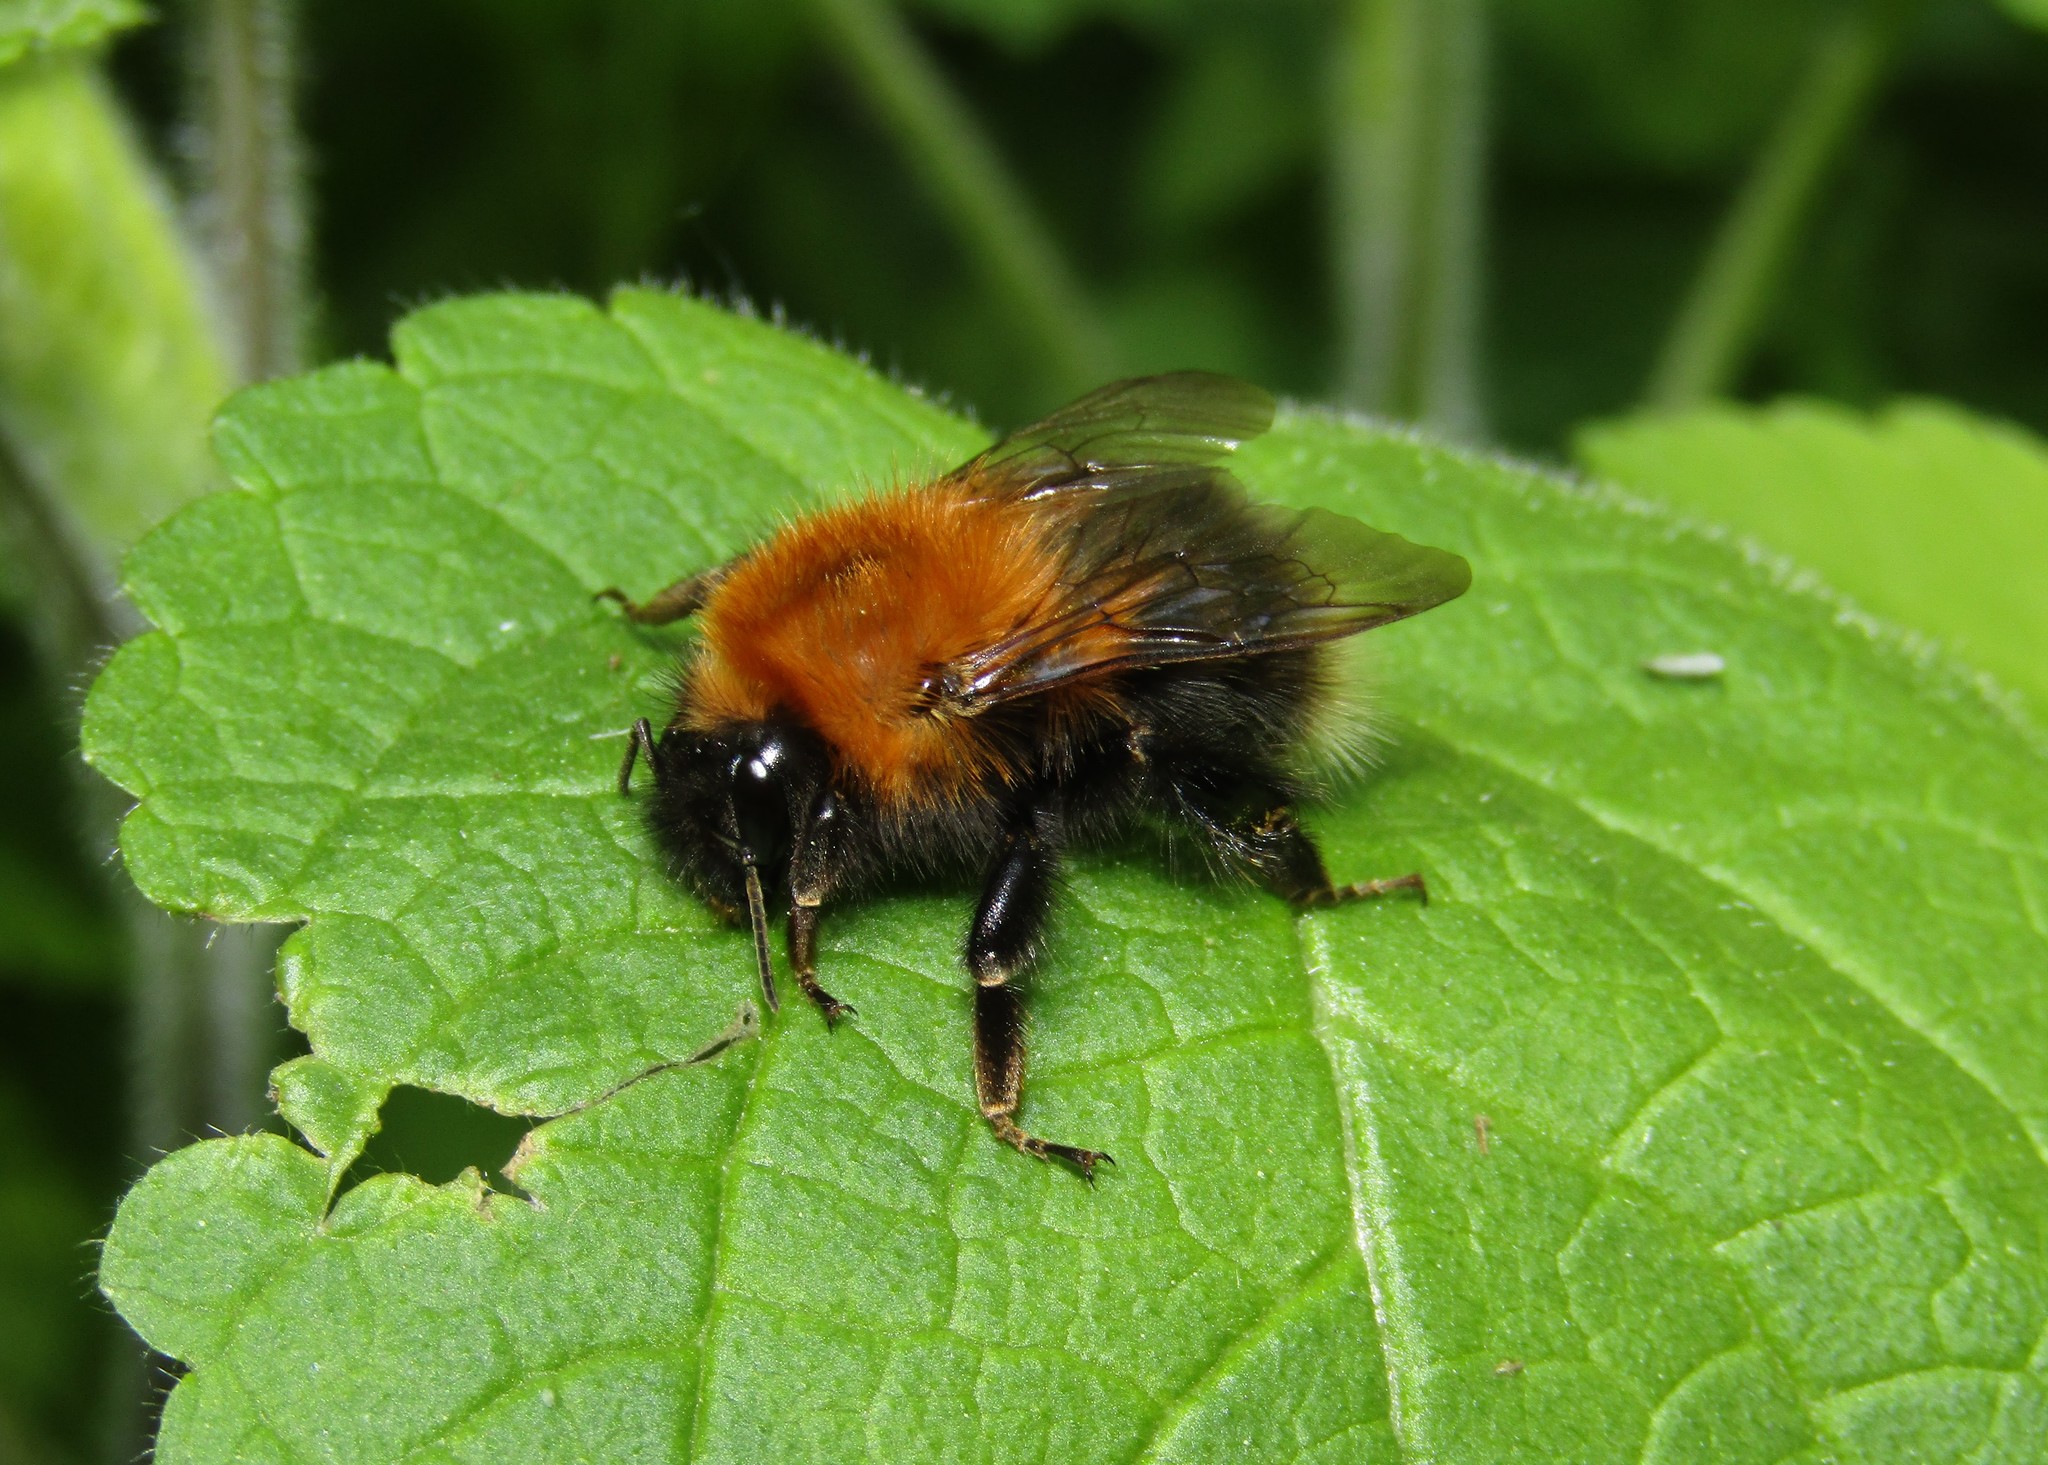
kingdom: Animalia
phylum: Arthropoda
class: Insecta
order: Hymenoptera
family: Apidae
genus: Bombus
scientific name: Bombus hypnorum
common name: New garden bumblebee
